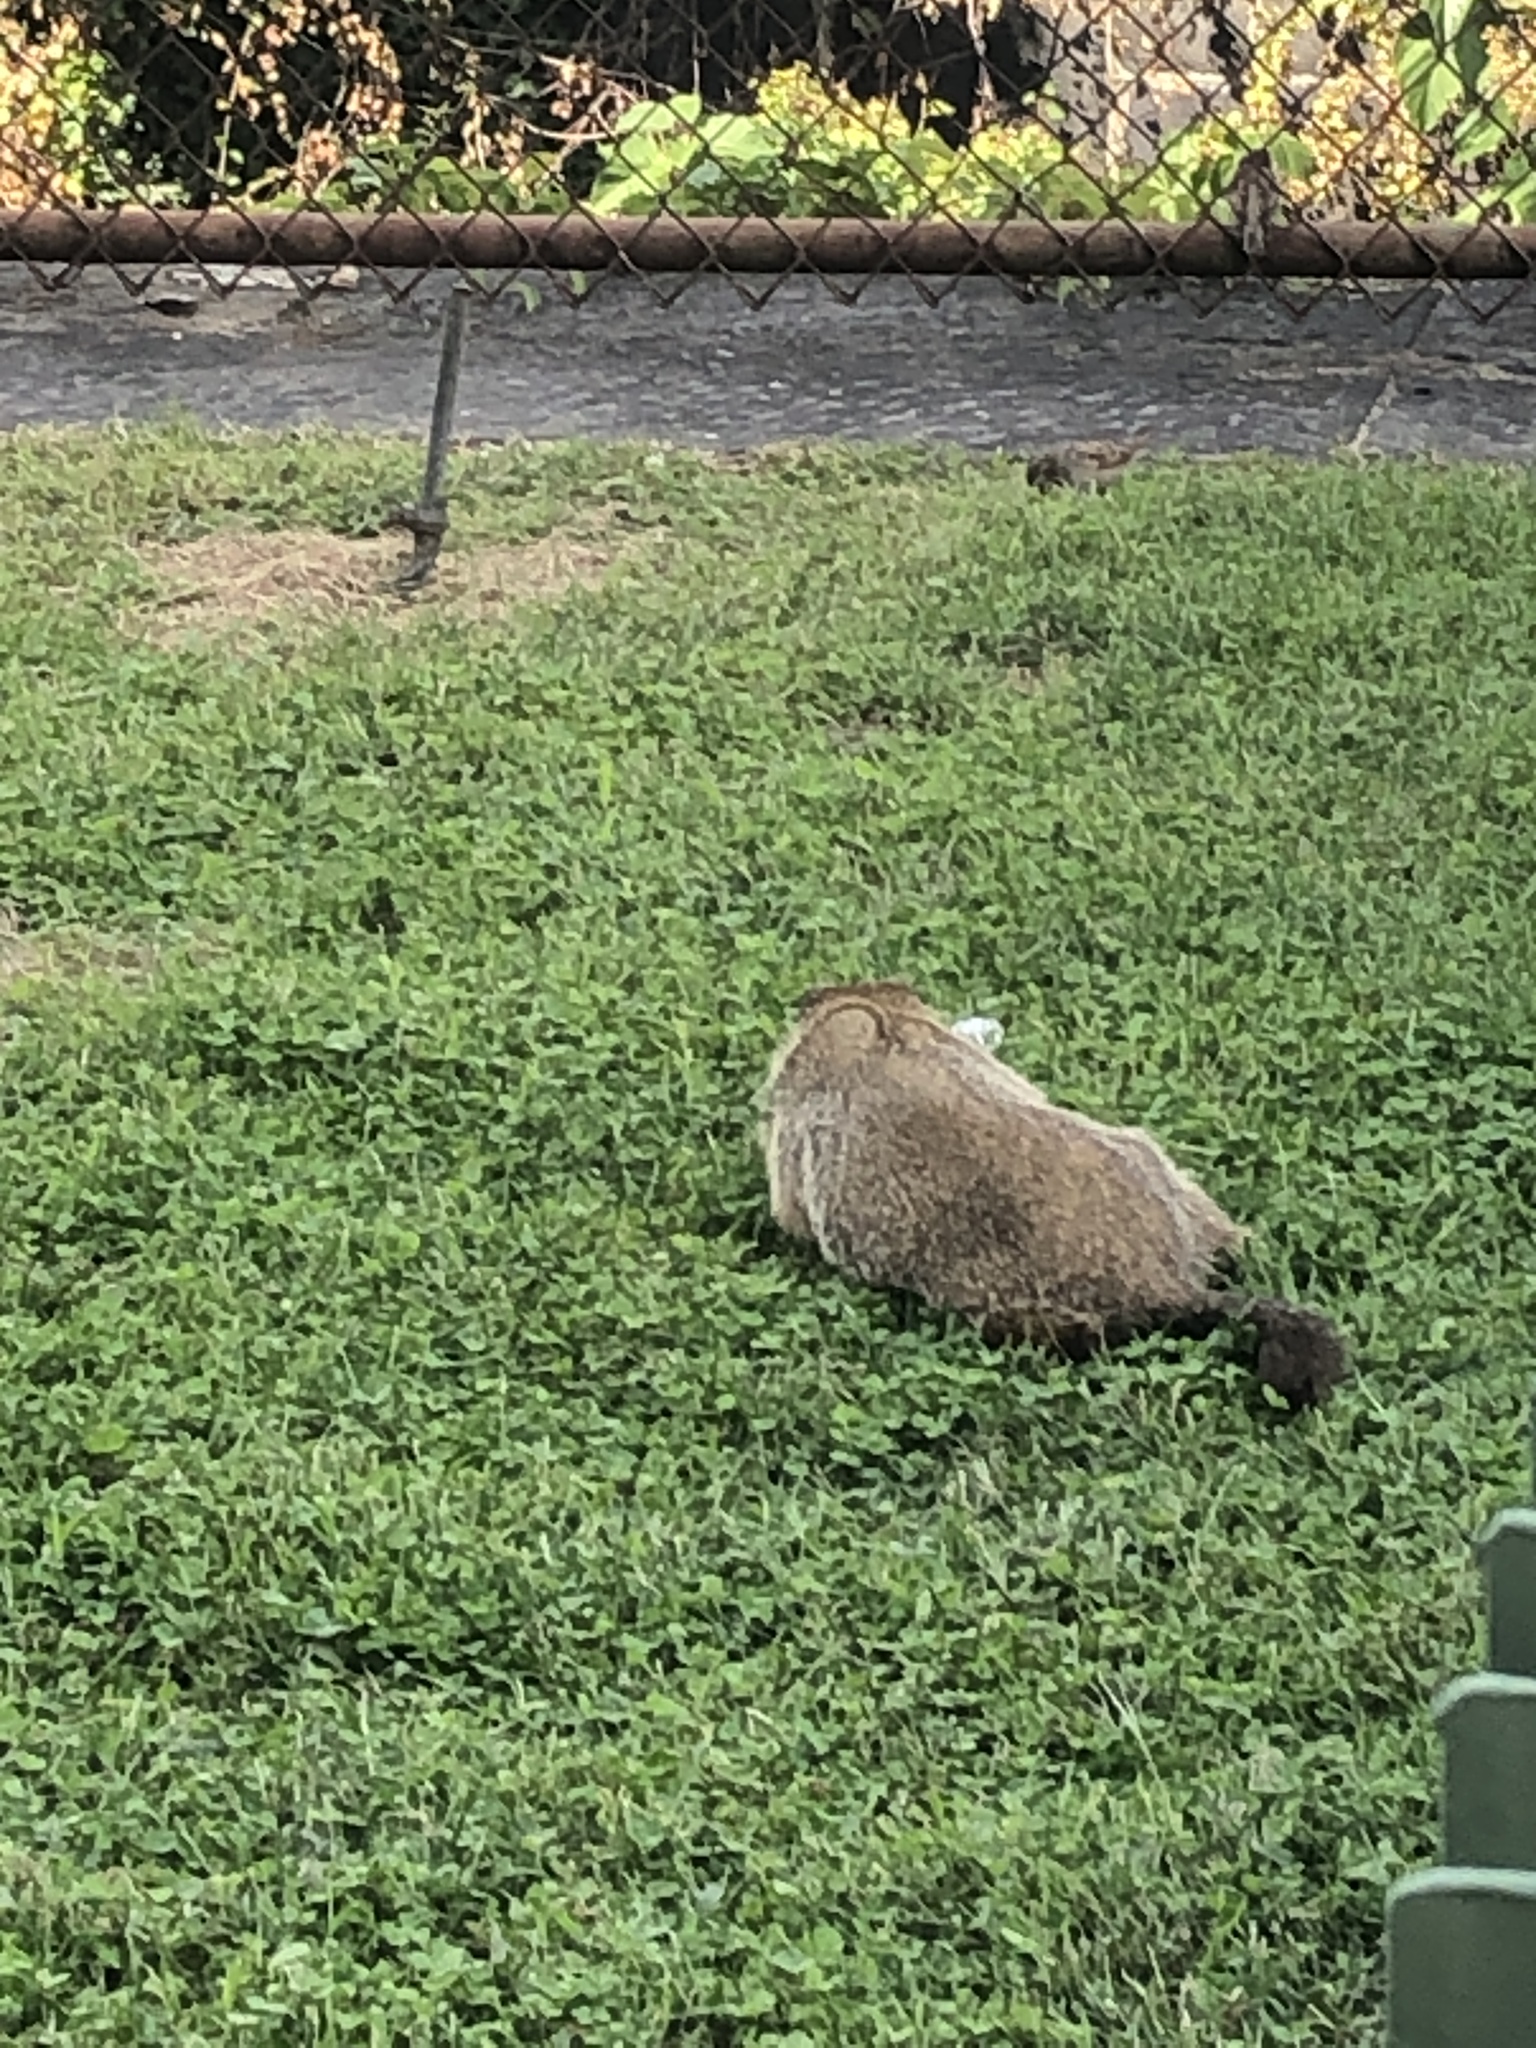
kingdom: Animalia
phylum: Chordata
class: Mammalia
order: Rodentia
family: Sciuridae
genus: Marmota
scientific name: Marmota monax
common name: Groundhog
